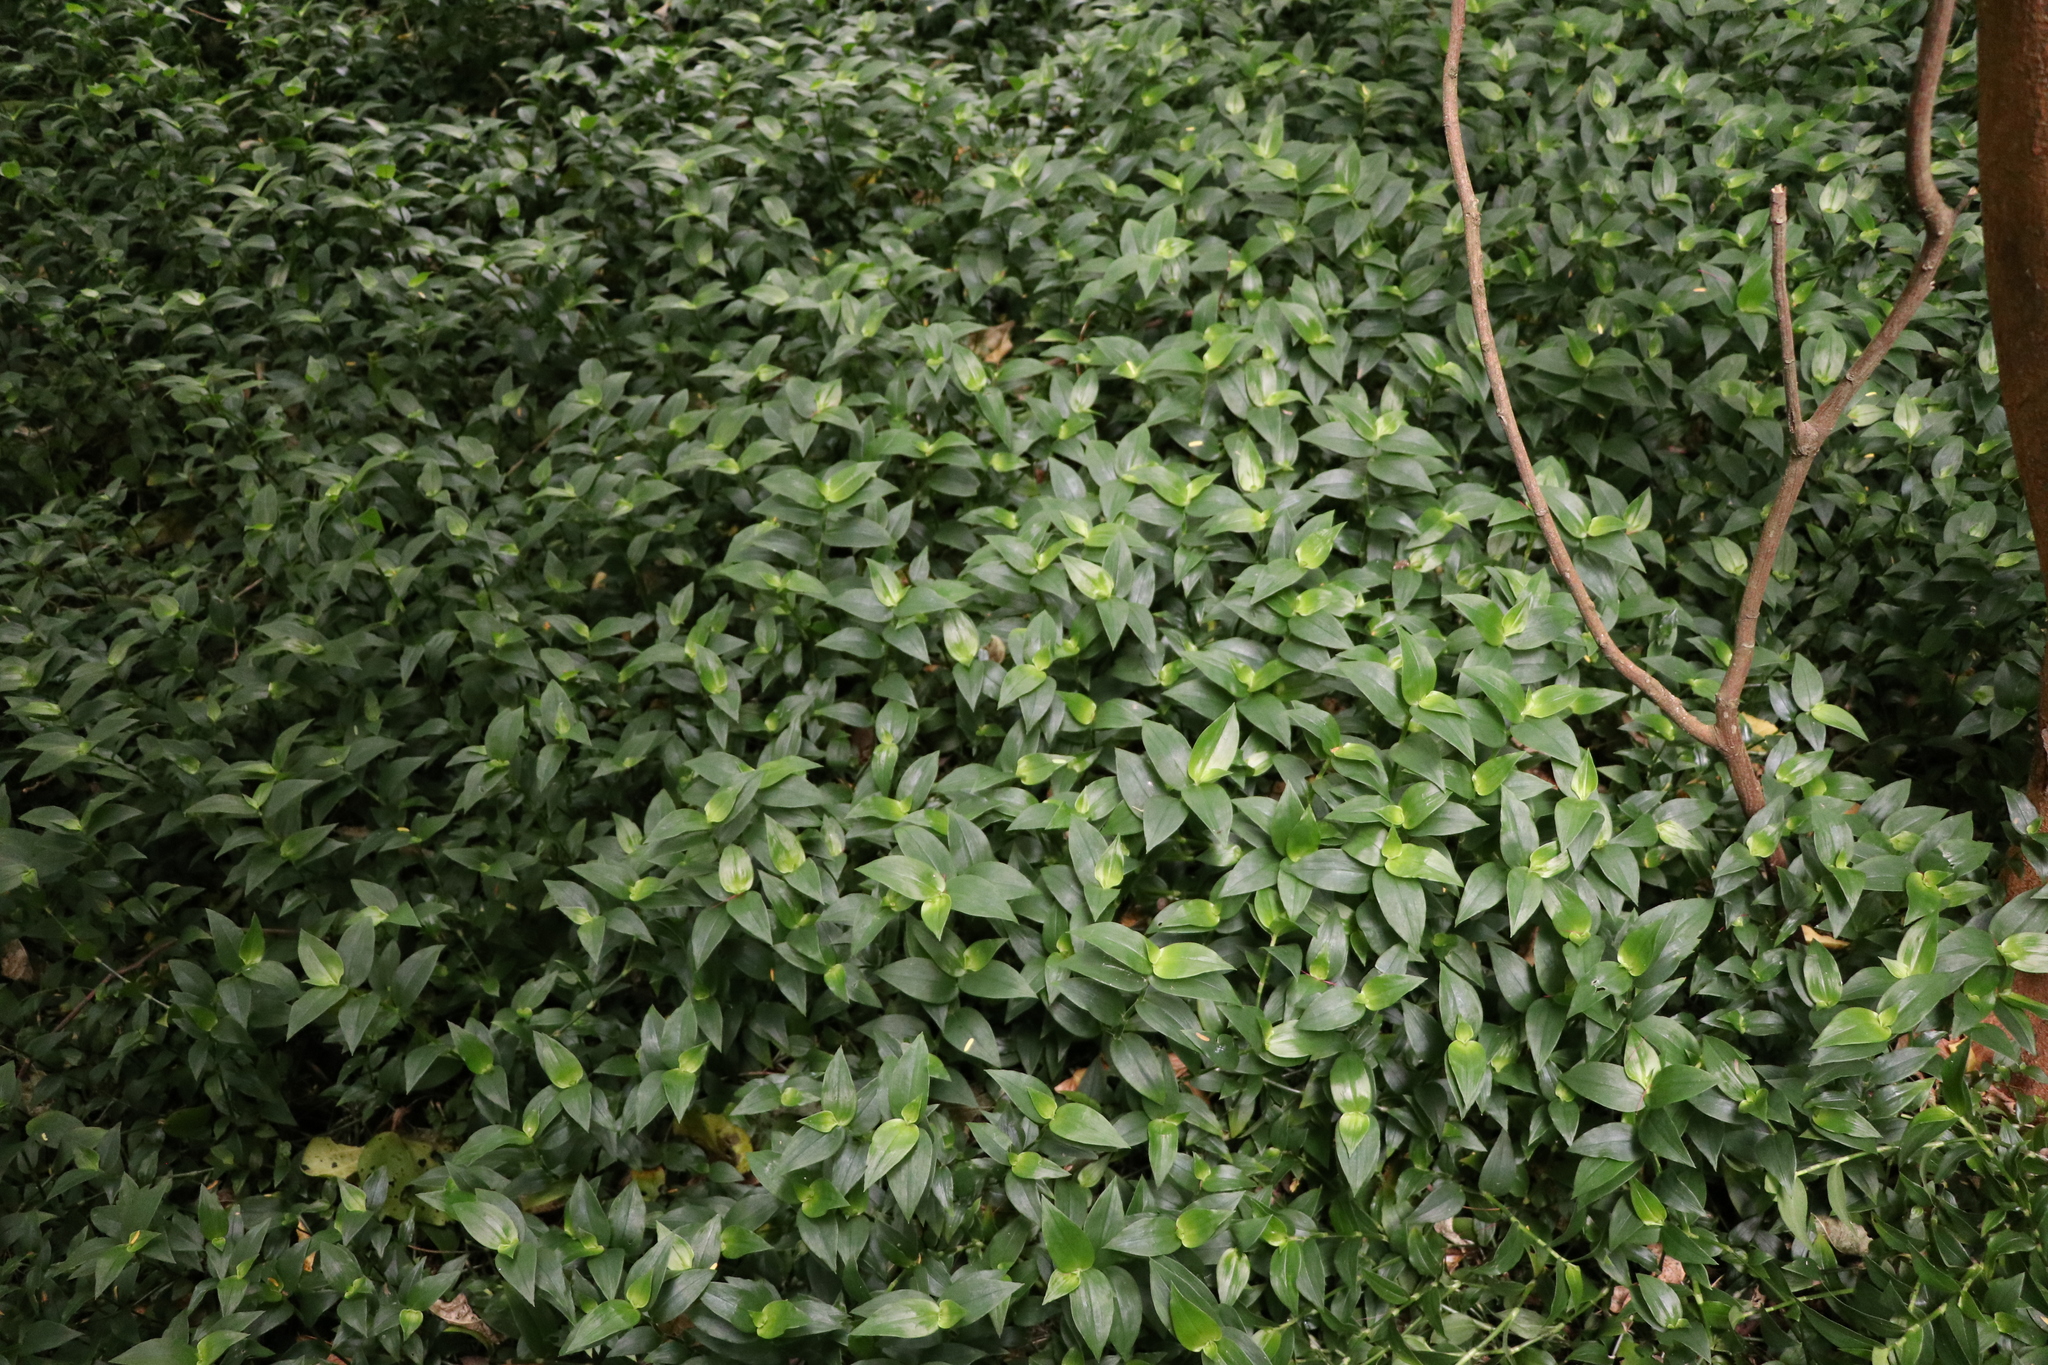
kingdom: Plantae
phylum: Tracheophyta
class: Liliopsida
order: Commelinales
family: Commelinaceae
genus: Tradescantia
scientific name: Tradescantia fluminensis
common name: Wandering-jew
